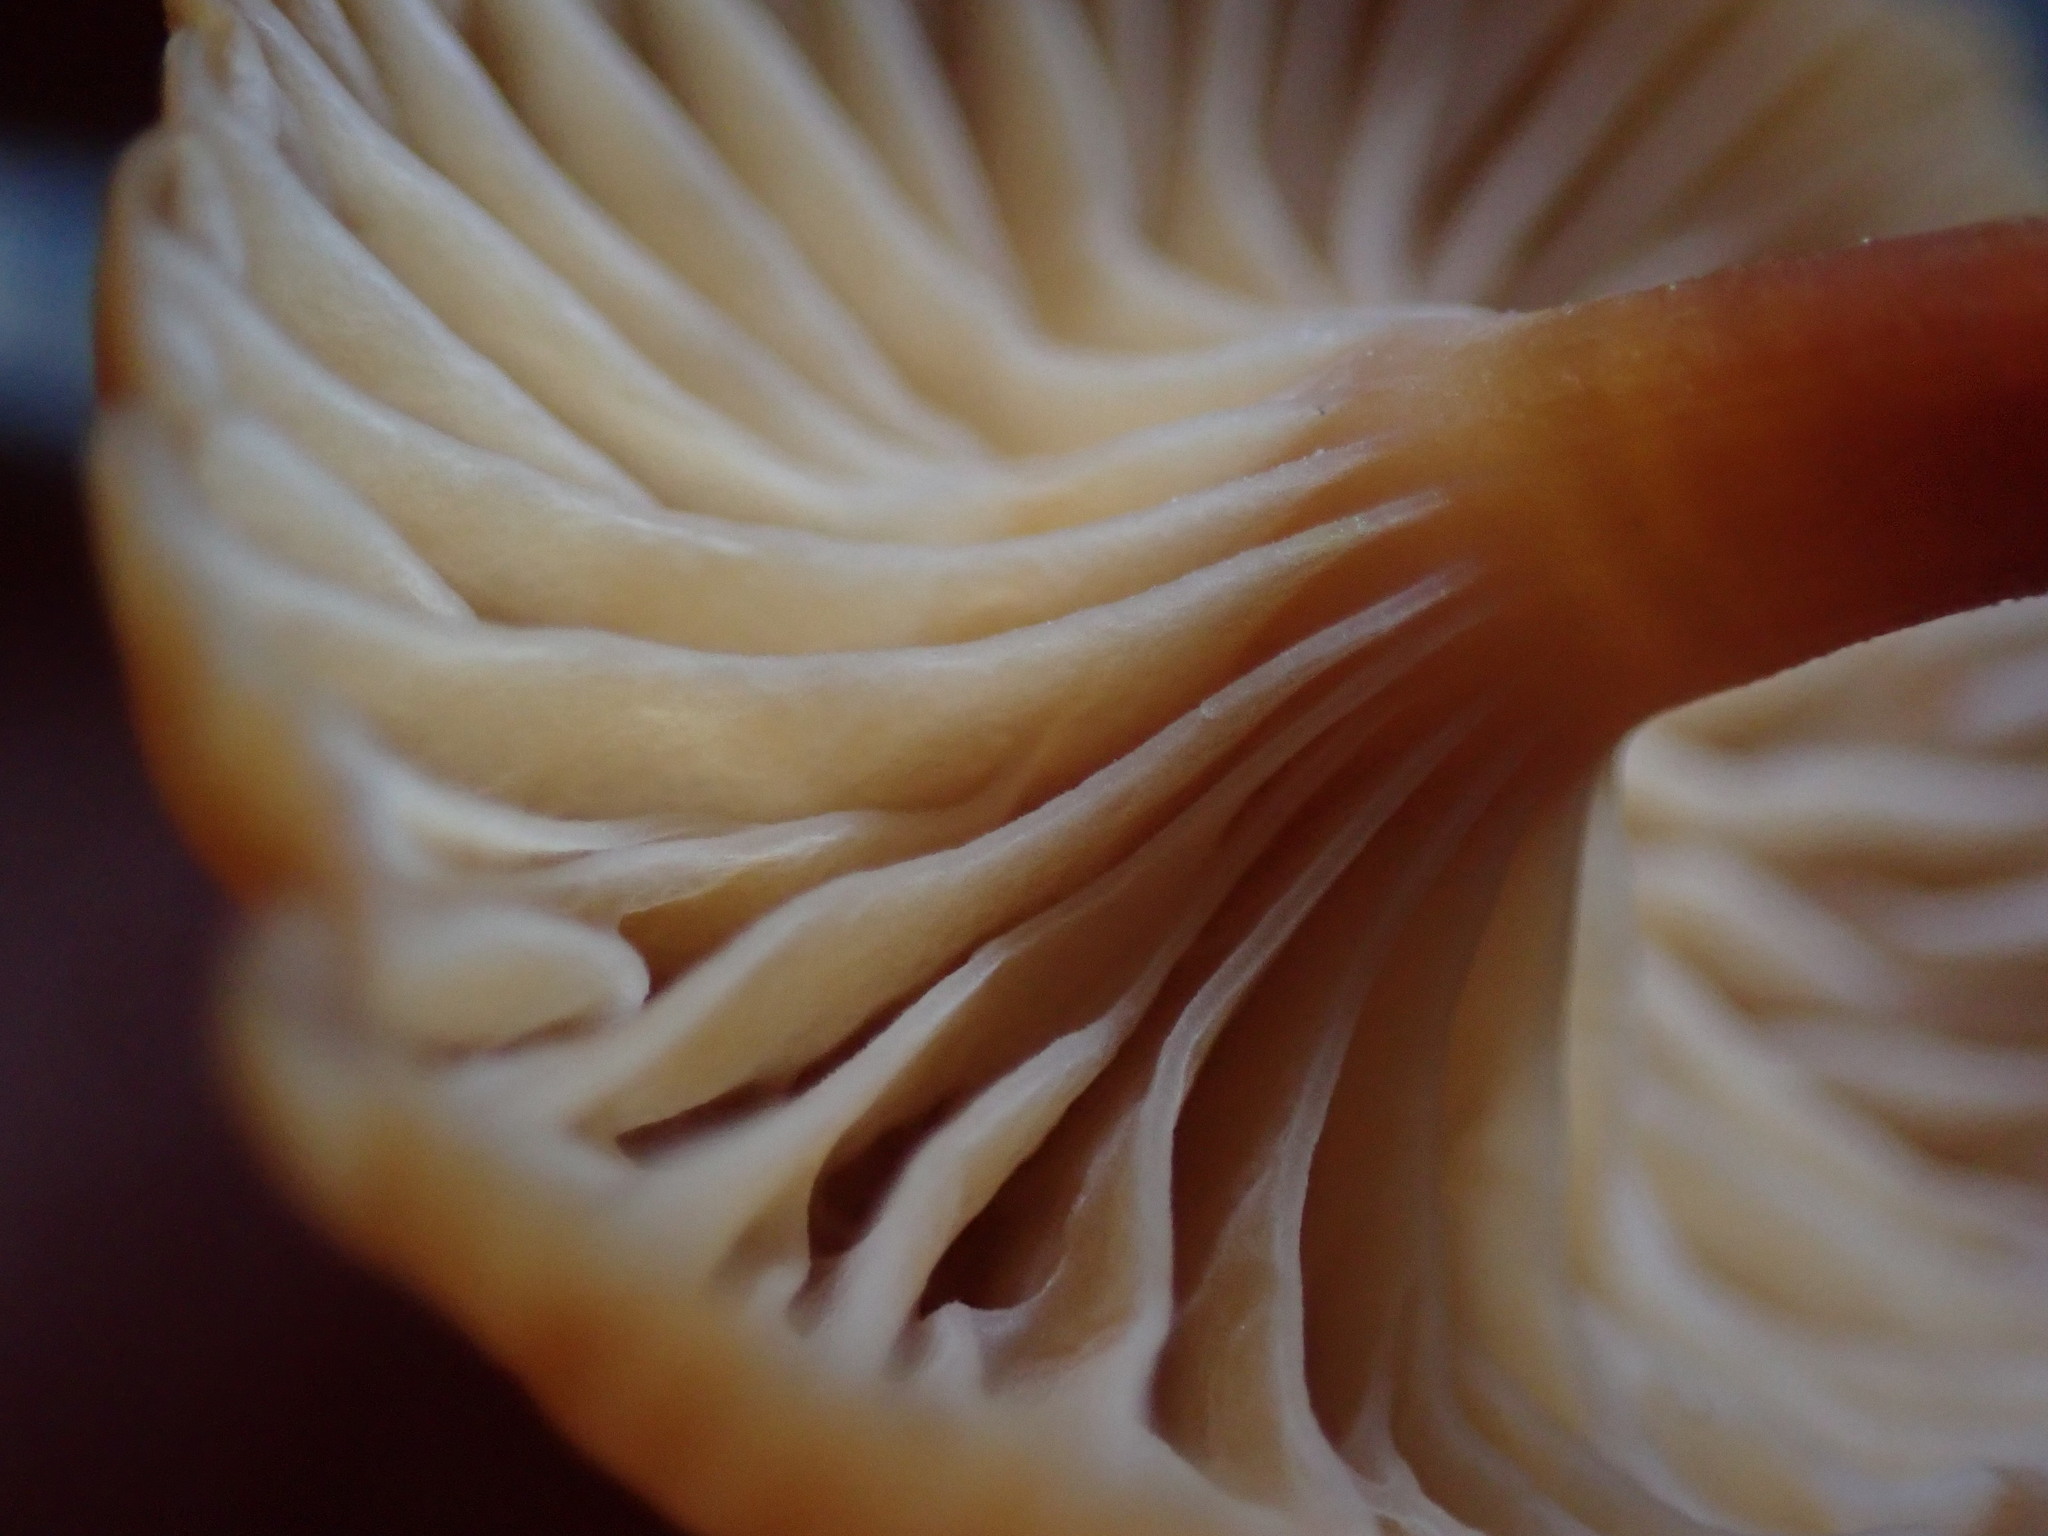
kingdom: Fungi
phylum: Basidiomycota
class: Agaricomycetes
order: Agaricales
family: Mycenaceae
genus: Xeromphalina
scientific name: Xeromphalina campanella
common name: Pinewood gingertail
